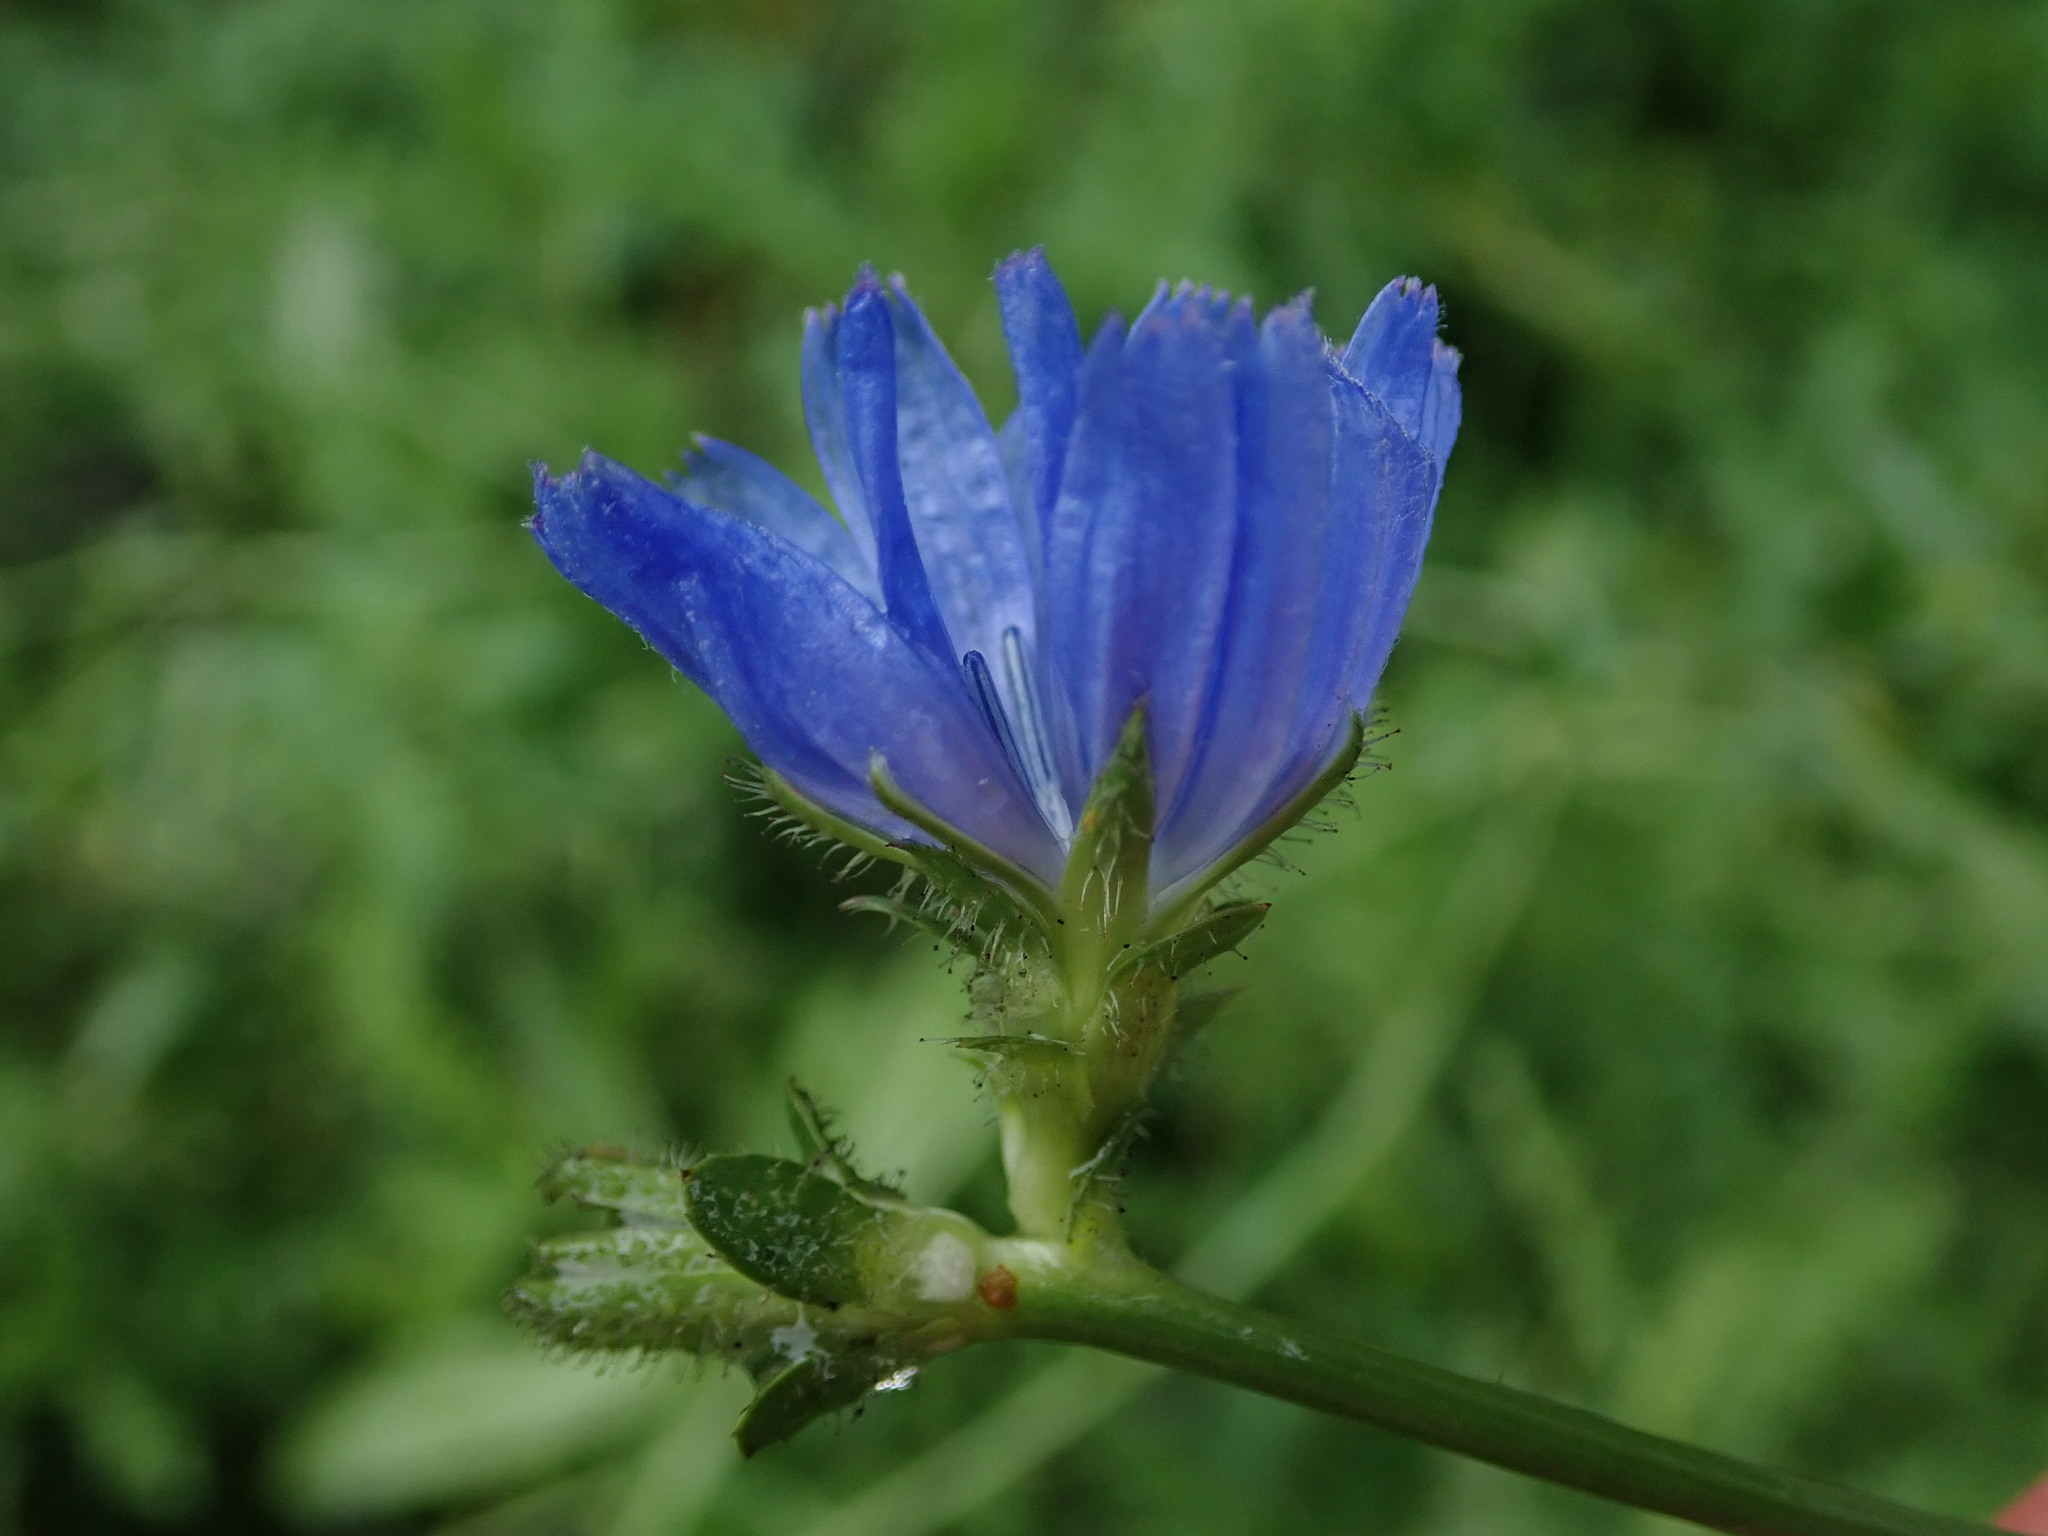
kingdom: Plantae
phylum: Tracheophyta
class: Magnoliopsida
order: Asterales
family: Asteraceae
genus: Cichorium
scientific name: Cichorium intybus
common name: Chicory
